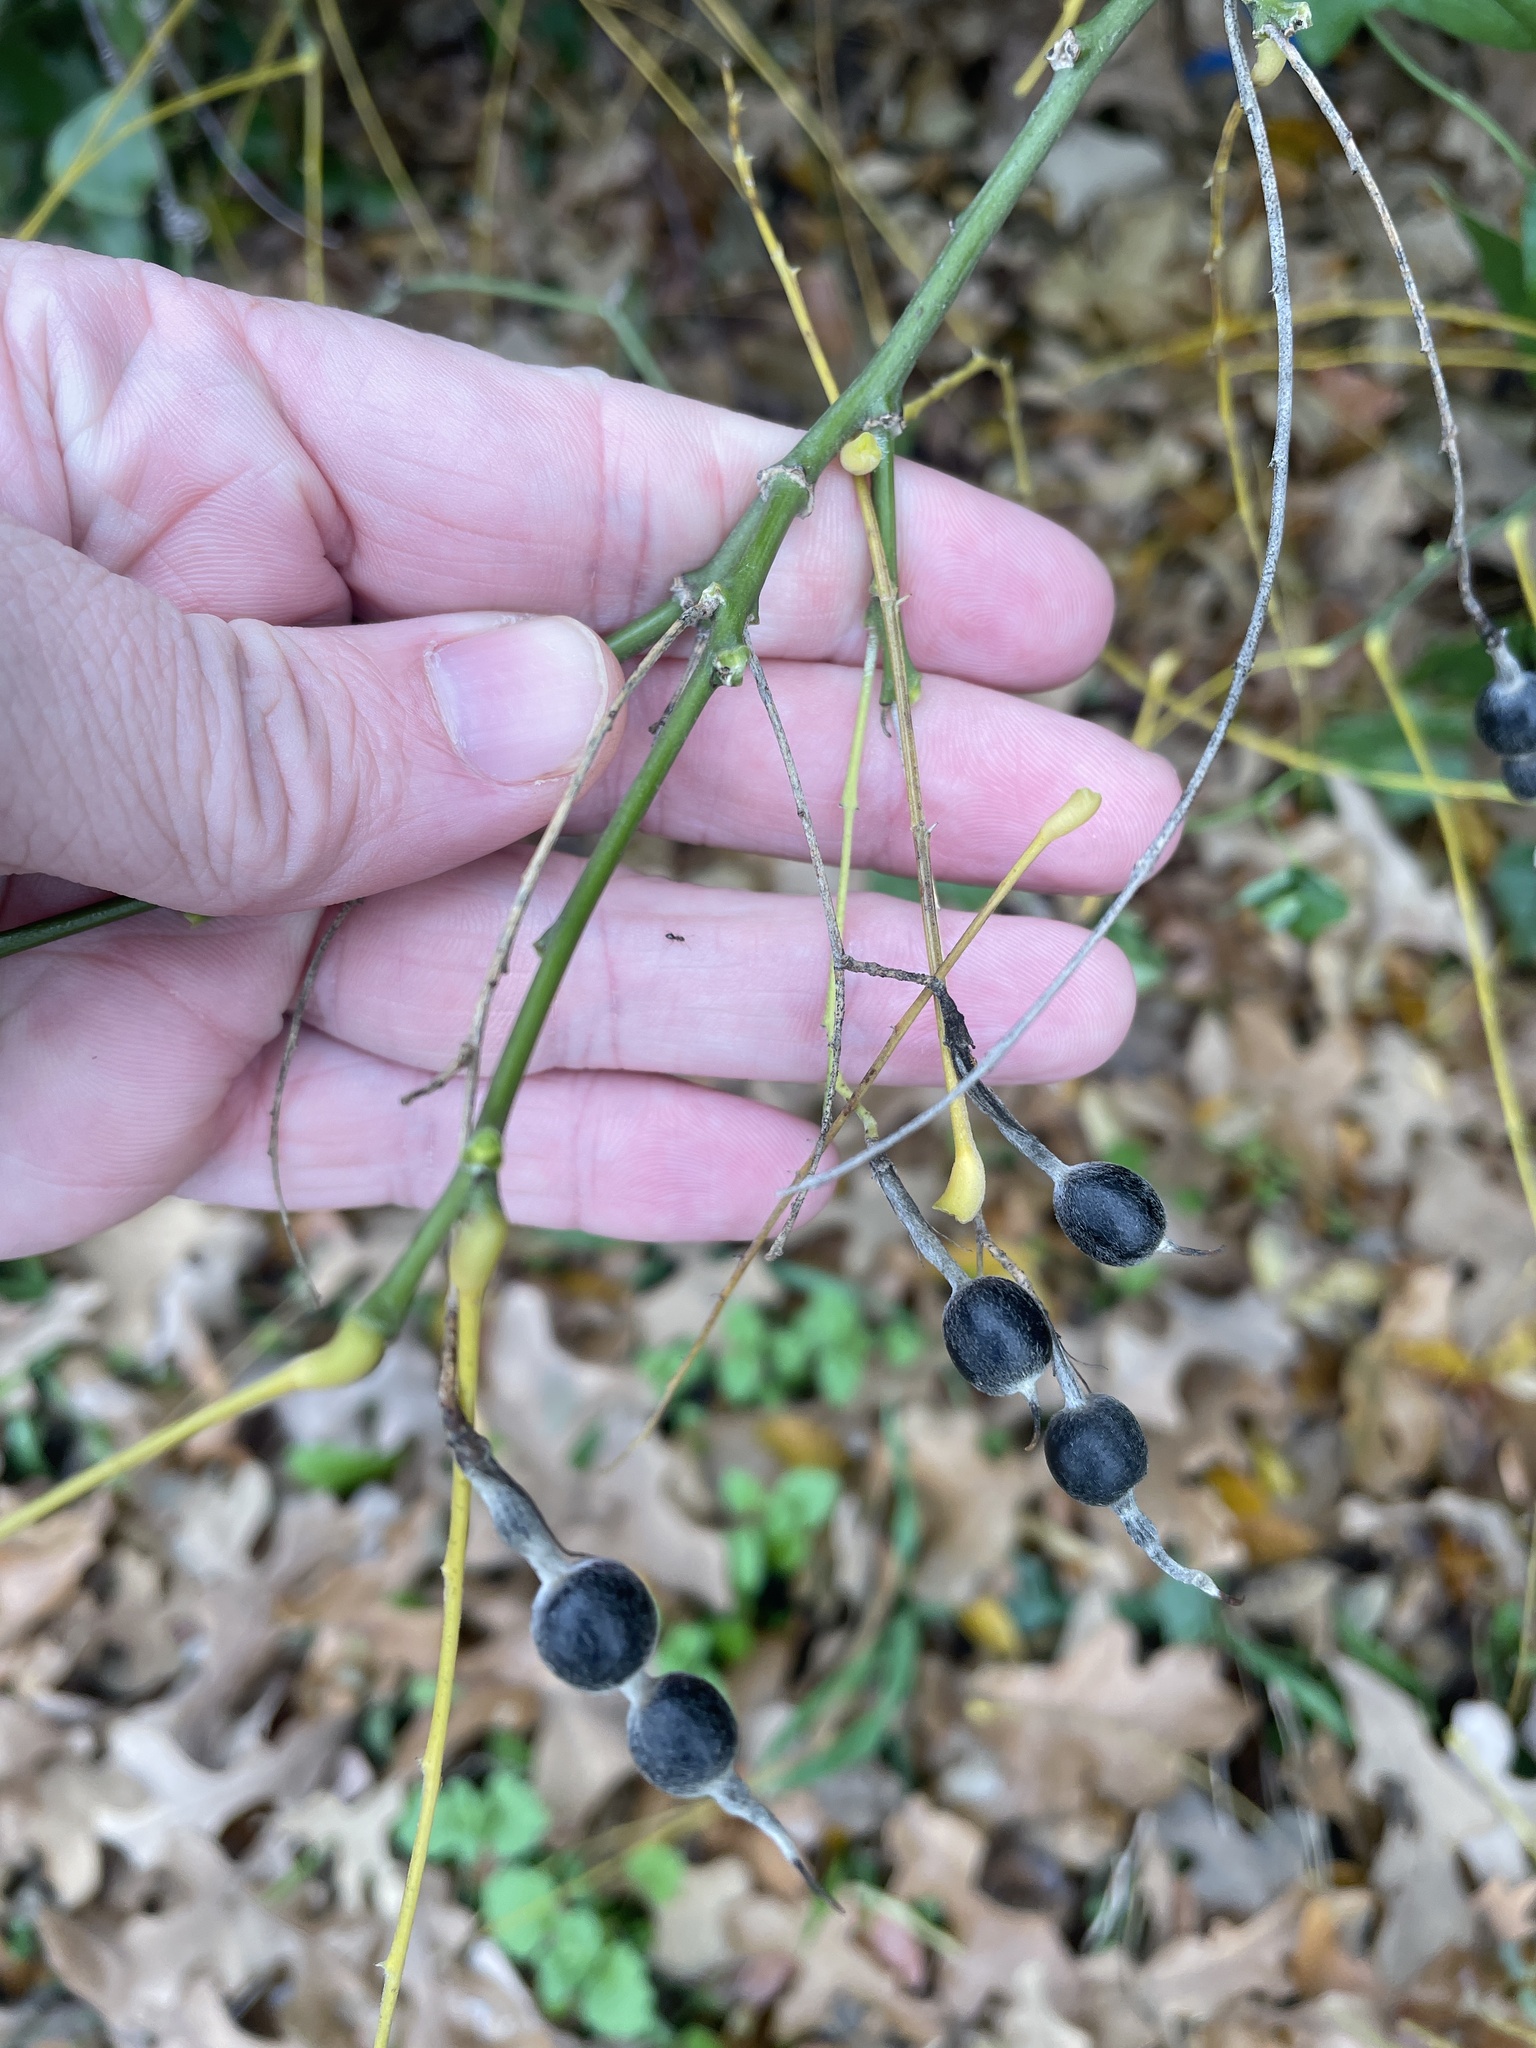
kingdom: Plantae
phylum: Tracheophyta
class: Magnoliopsida
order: Fabales
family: Fabaceae
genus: Styphnolobium
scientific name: Styphnolobium affine
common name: Texas sophora
